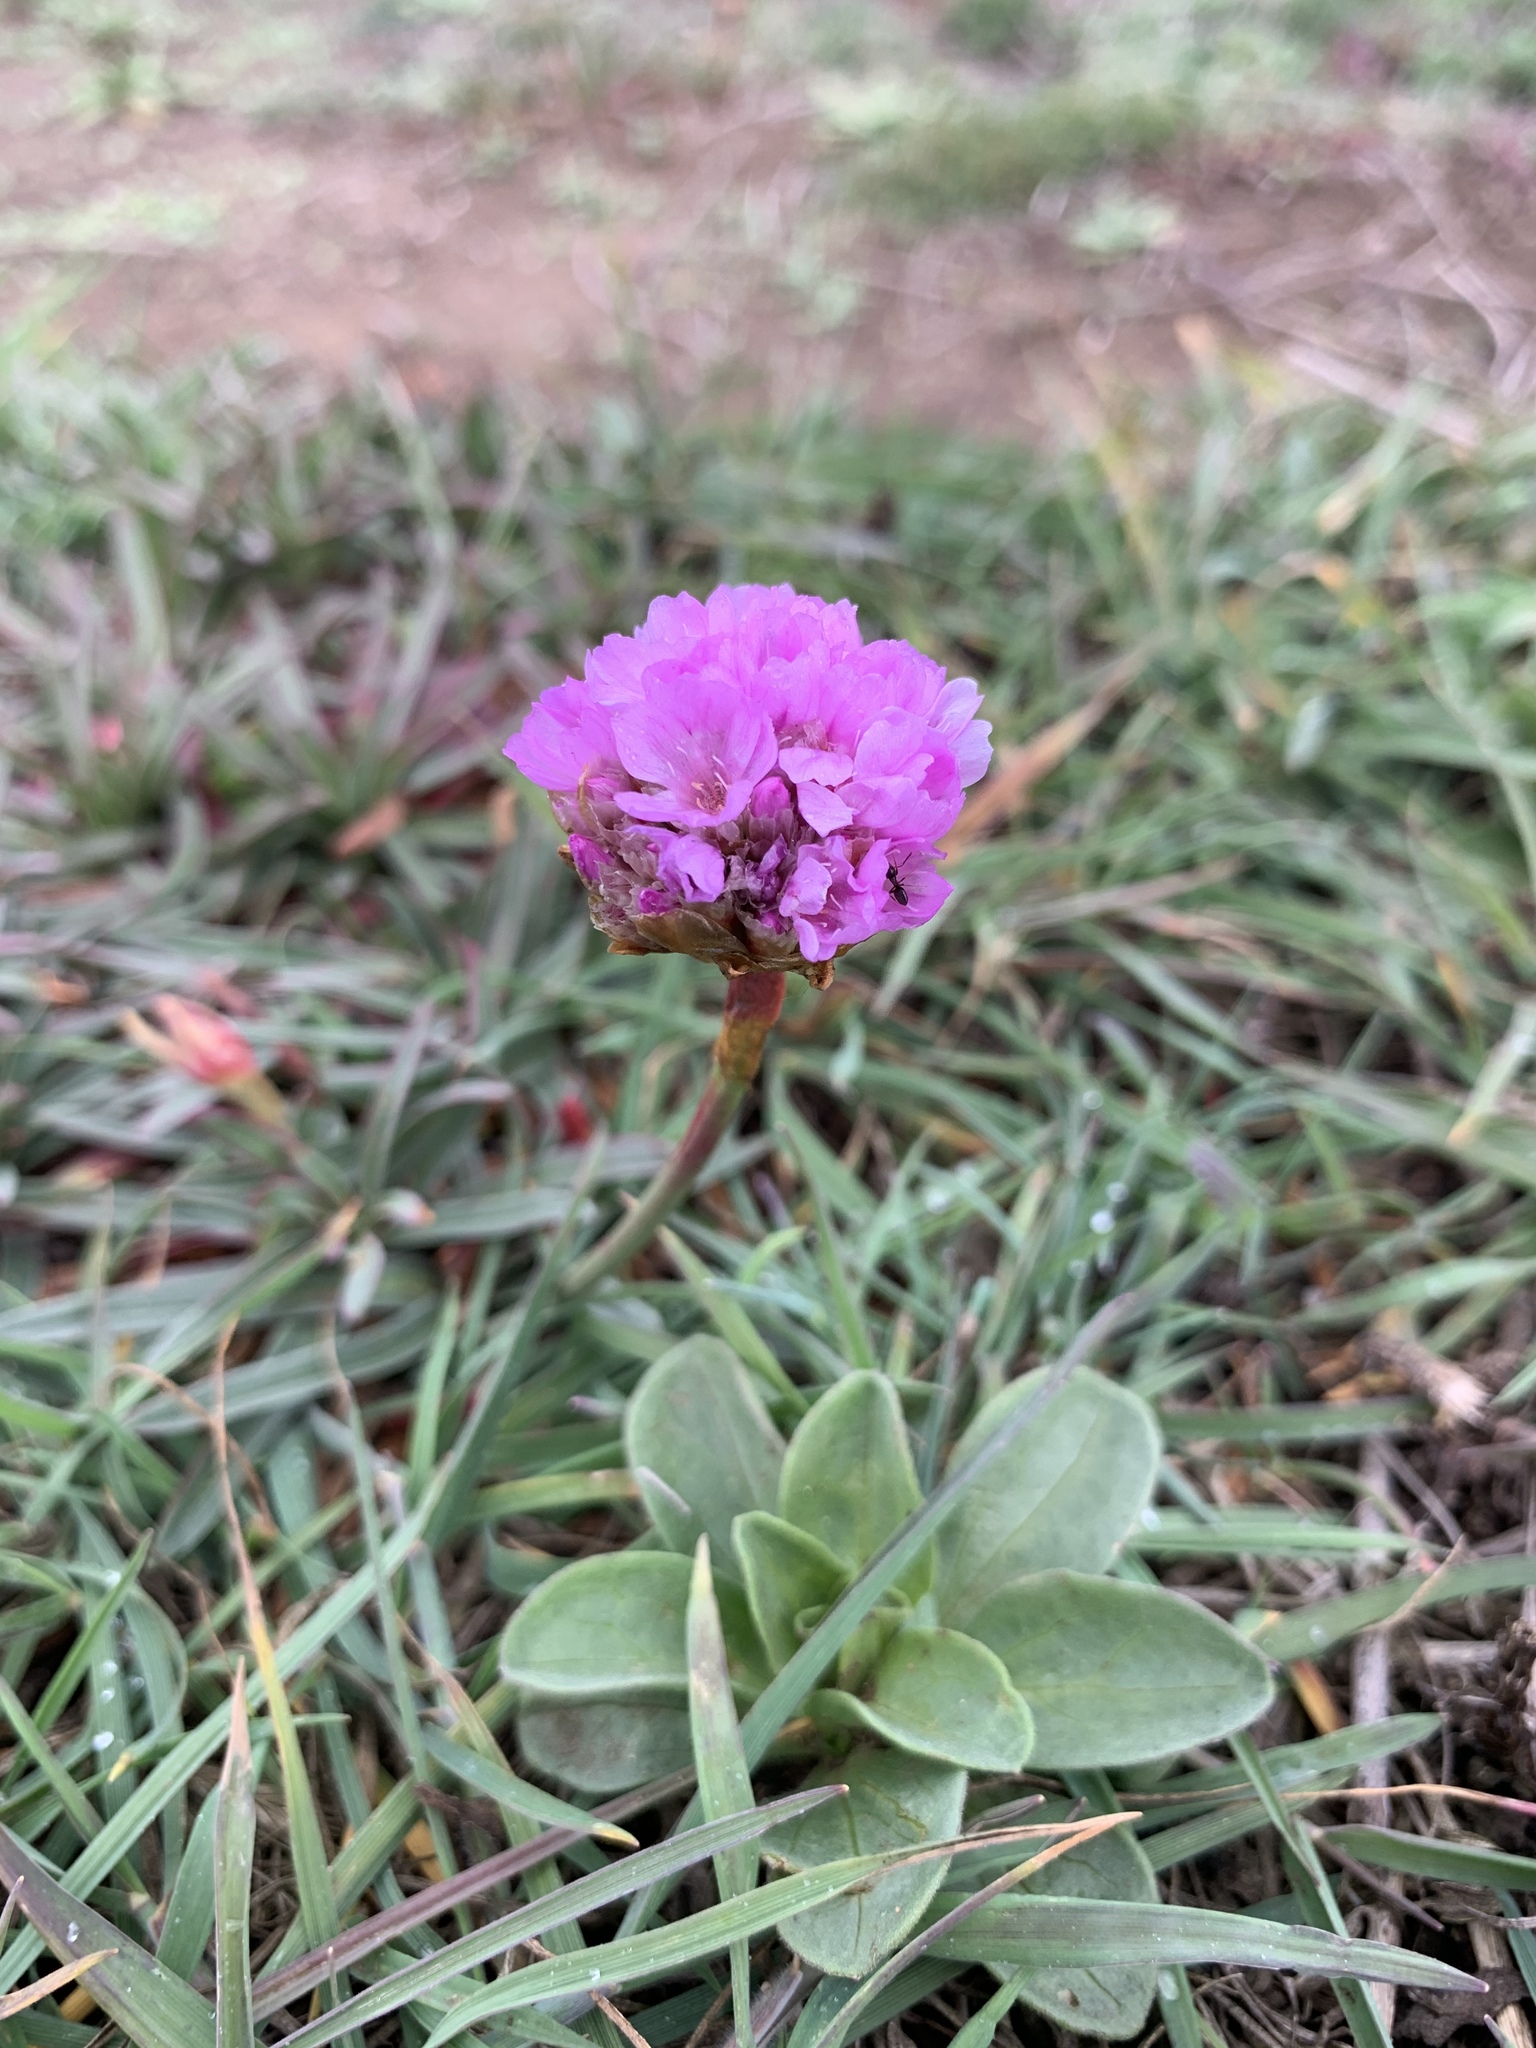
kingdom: Plantae
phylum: Tracheophyta
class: Magnoliopsida
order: Caryophyllales
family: Plumbaginaceae
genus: Armeria
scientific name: Armeria maritima
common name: Thrift
